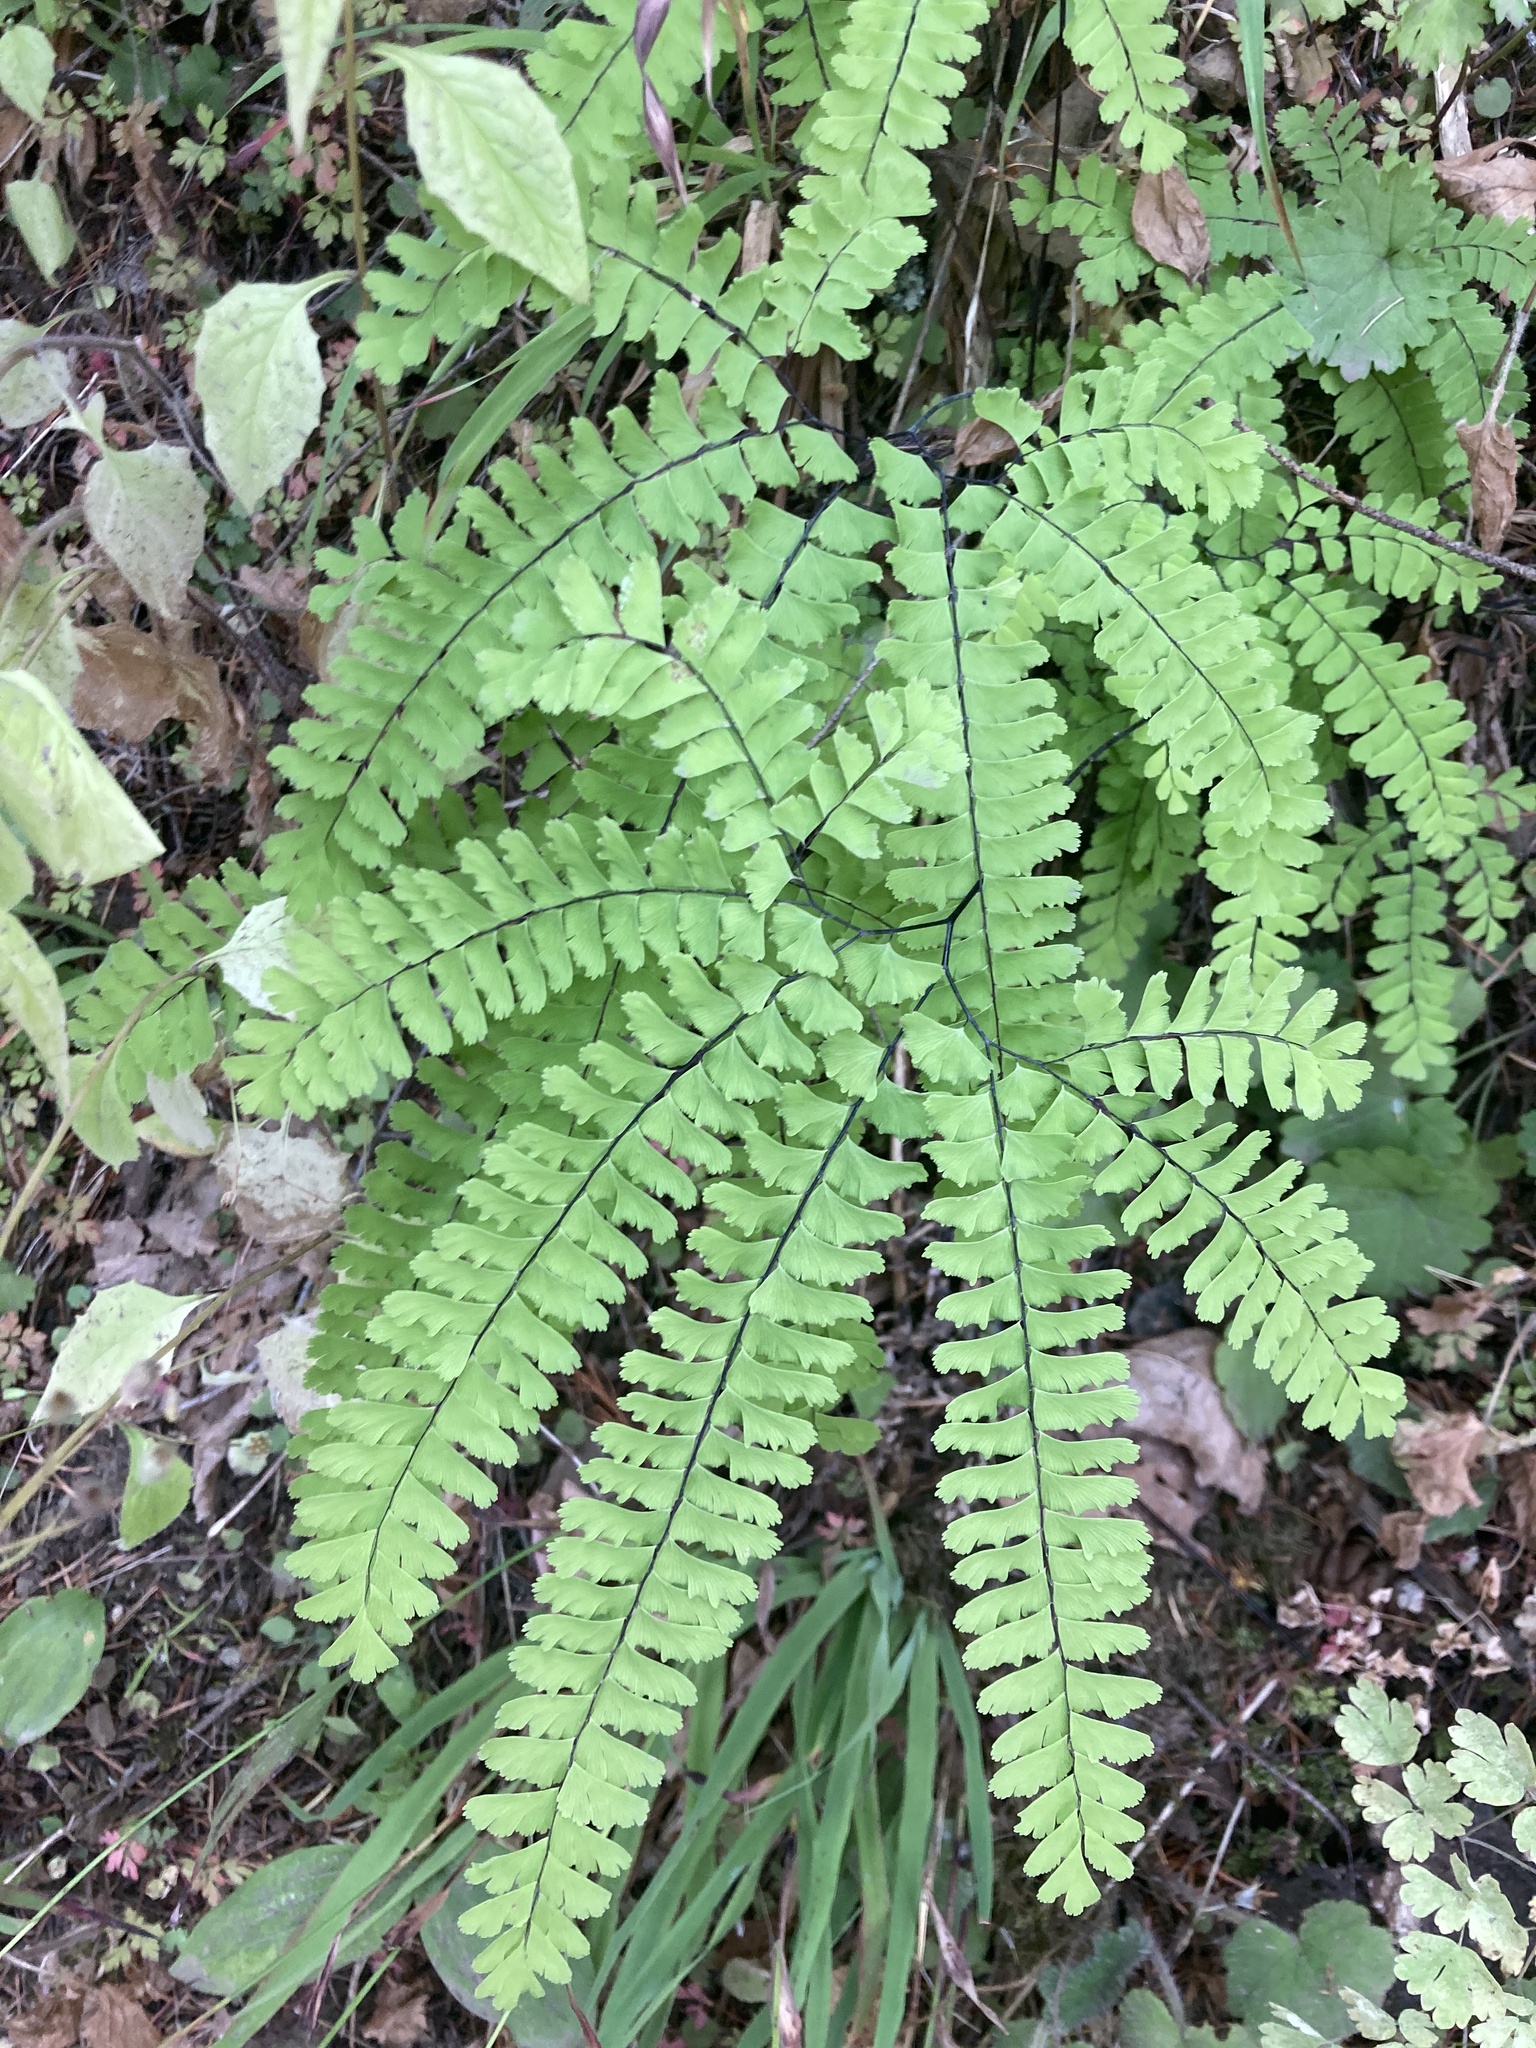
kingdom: Plantae
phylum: Tracheophyta
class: Polypodiopsida
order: Polypodiales
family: Pteridaceae
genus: Adiantum
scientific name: Adiantum aleuticum
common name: Aleutian maidenhair fern
